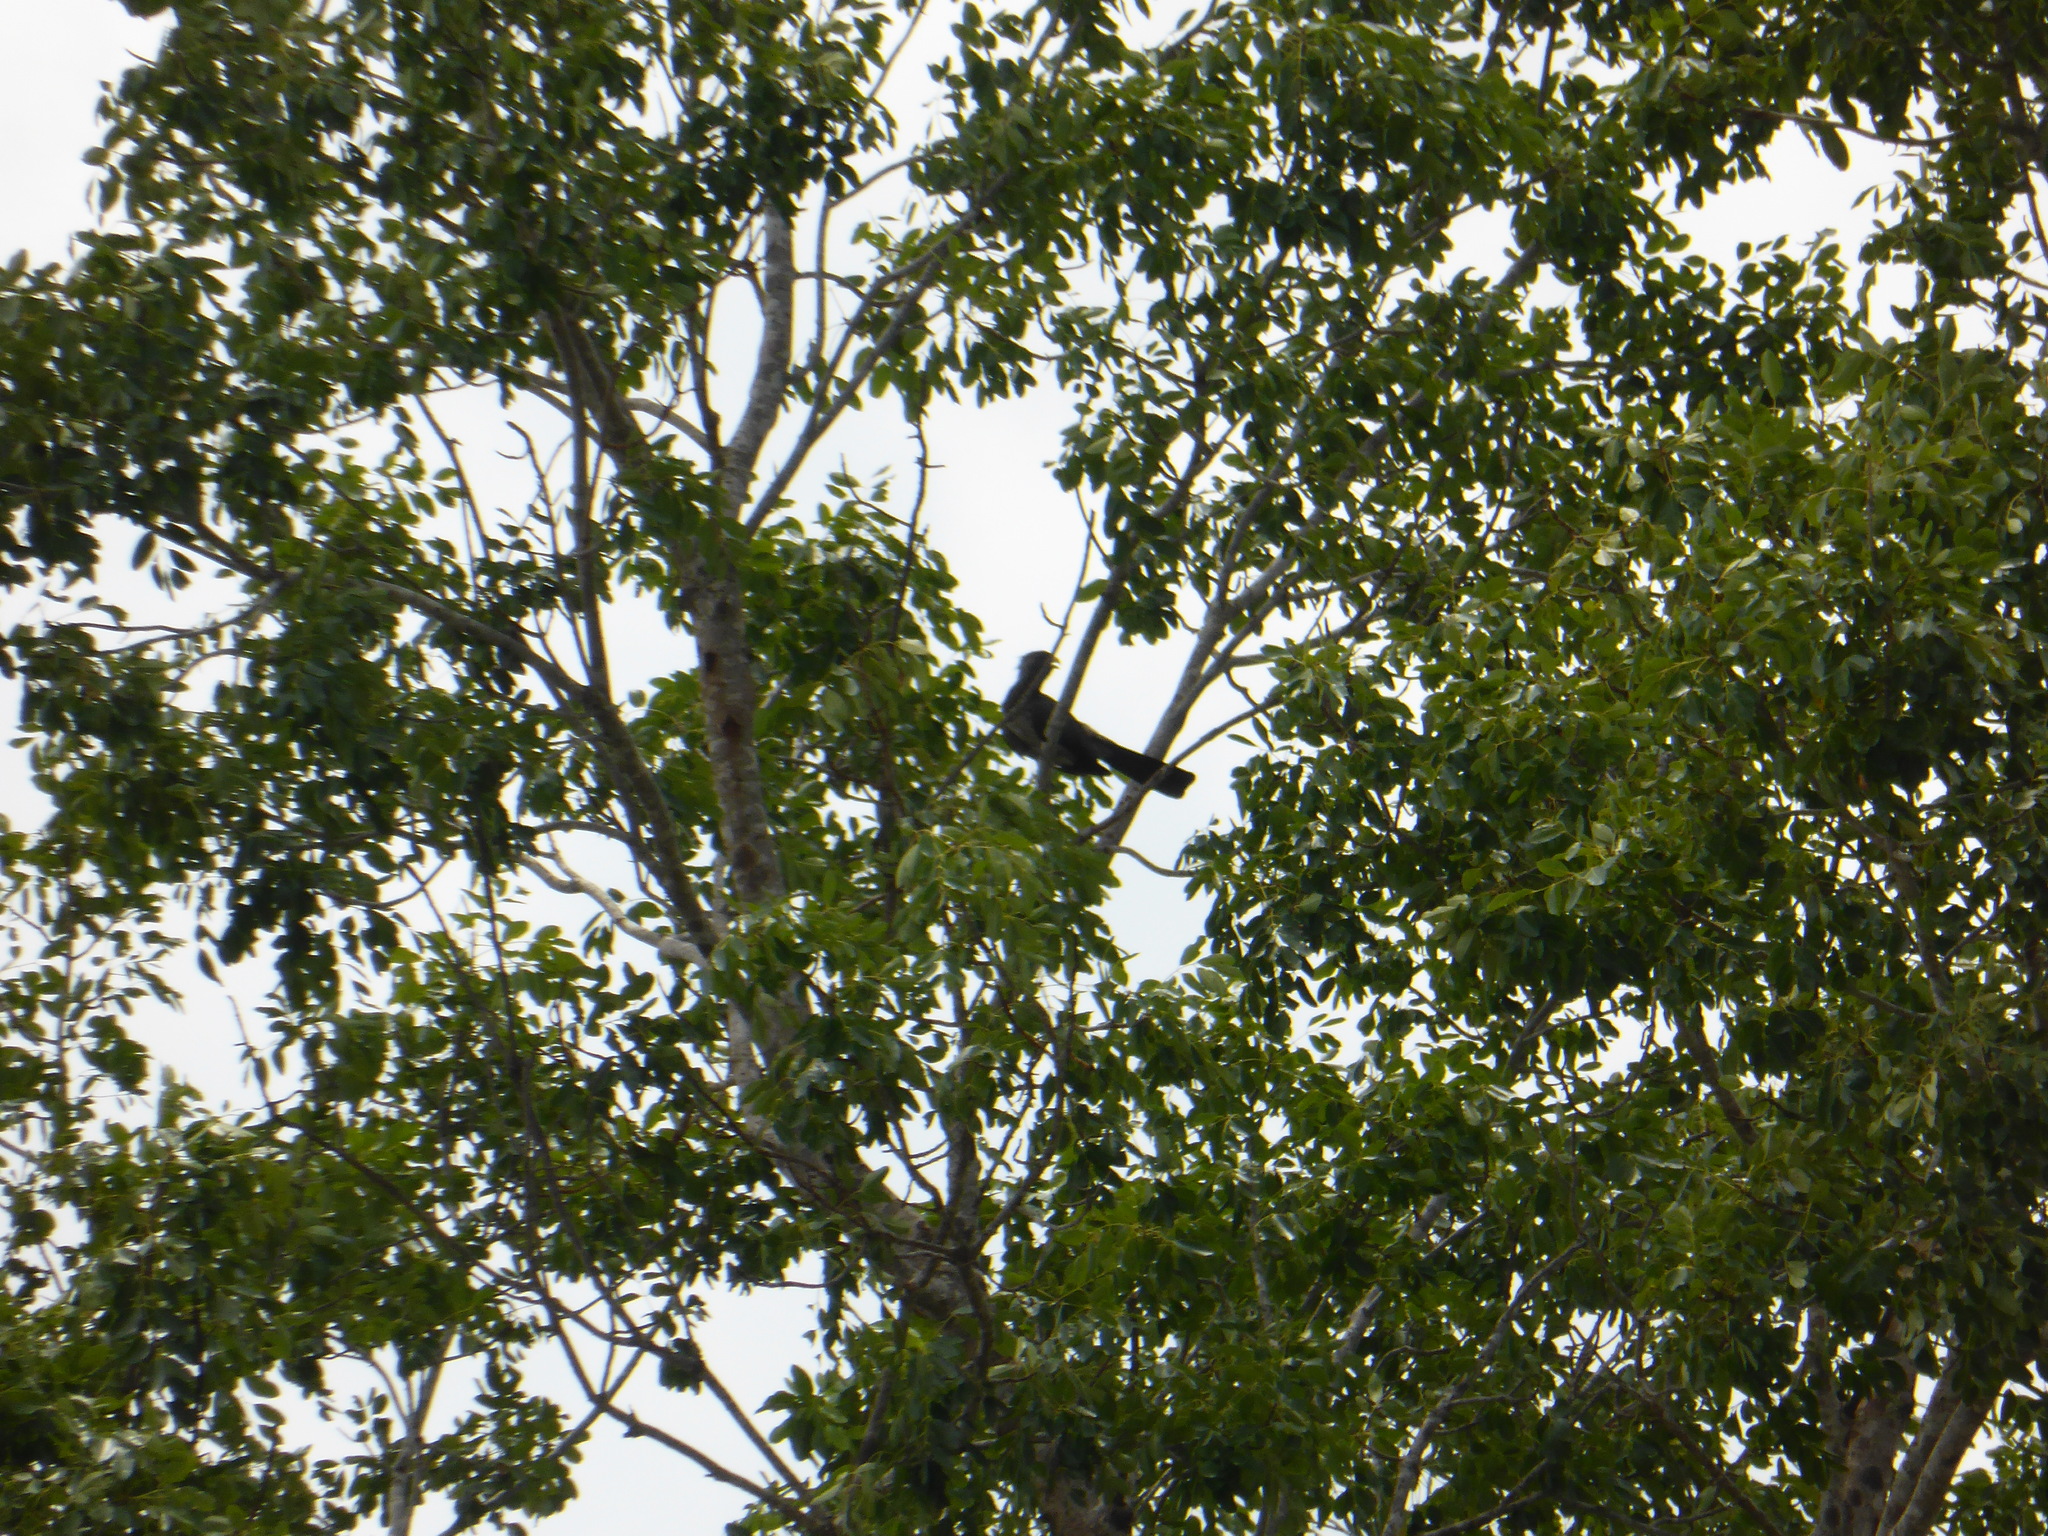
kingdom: Animalia
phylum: Chordata
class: Aves
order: Musophagiformes
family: Musophagidae
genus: Crinifer
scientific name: Crinifer piscator
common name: Western plantain-eater
